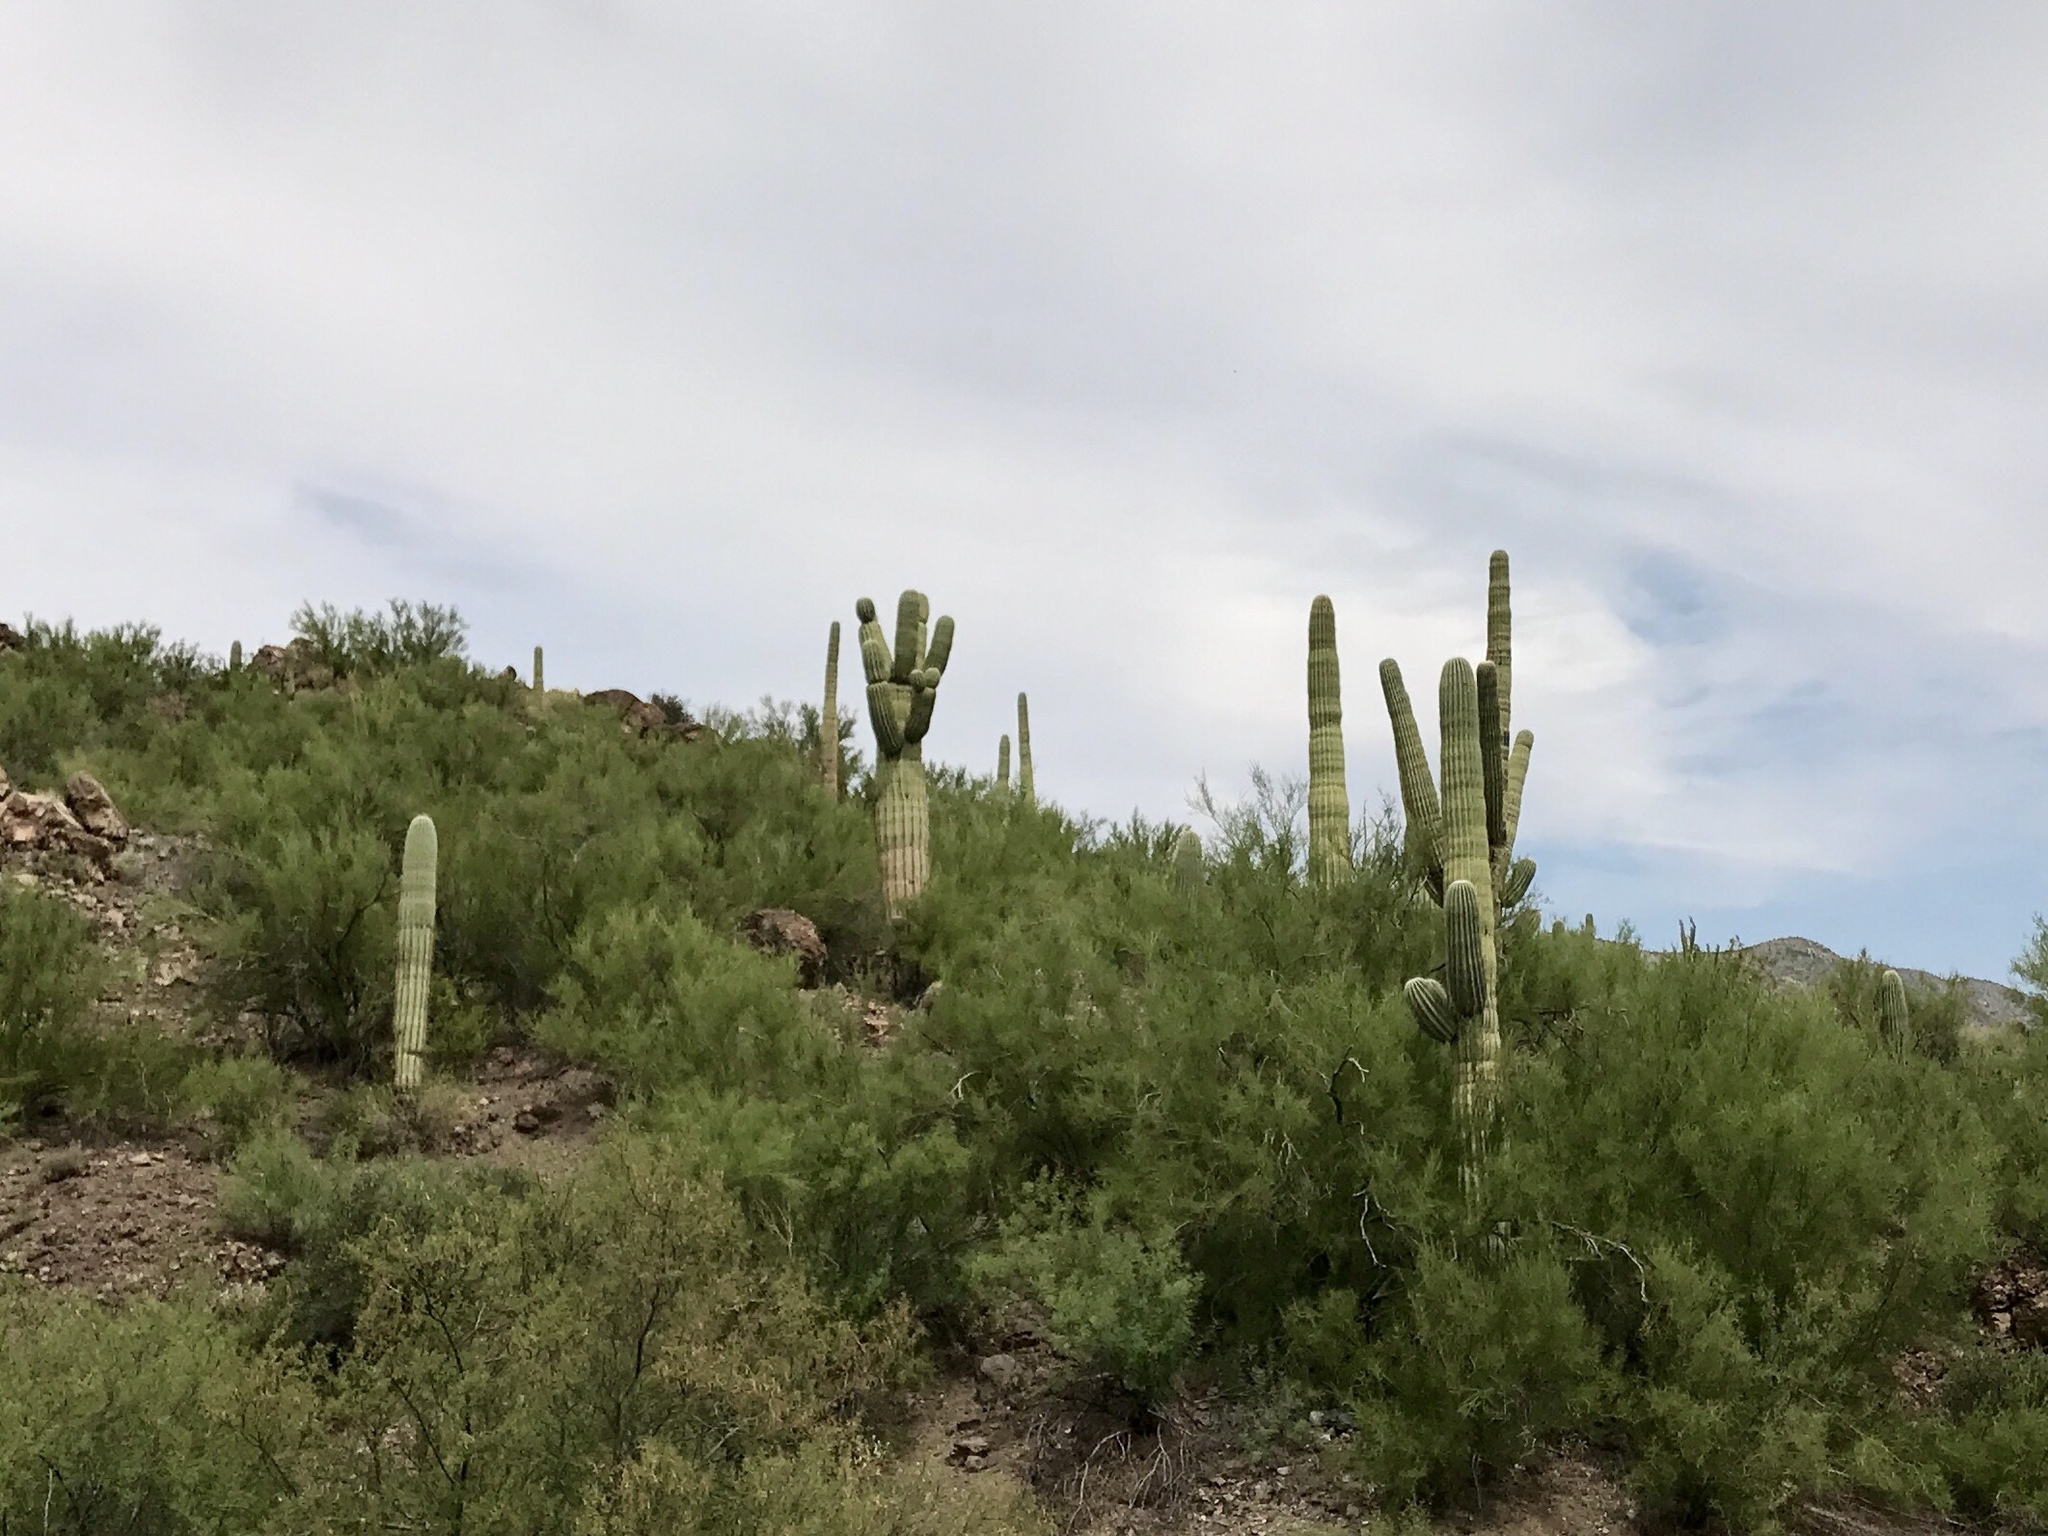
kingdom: Plantae
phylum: Tracheophyta
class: Magnoliopsida
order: Caryophyllales
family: Cactaceae
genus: Carnegiea
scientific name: Carnegiea gigantea
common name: Saguaro
